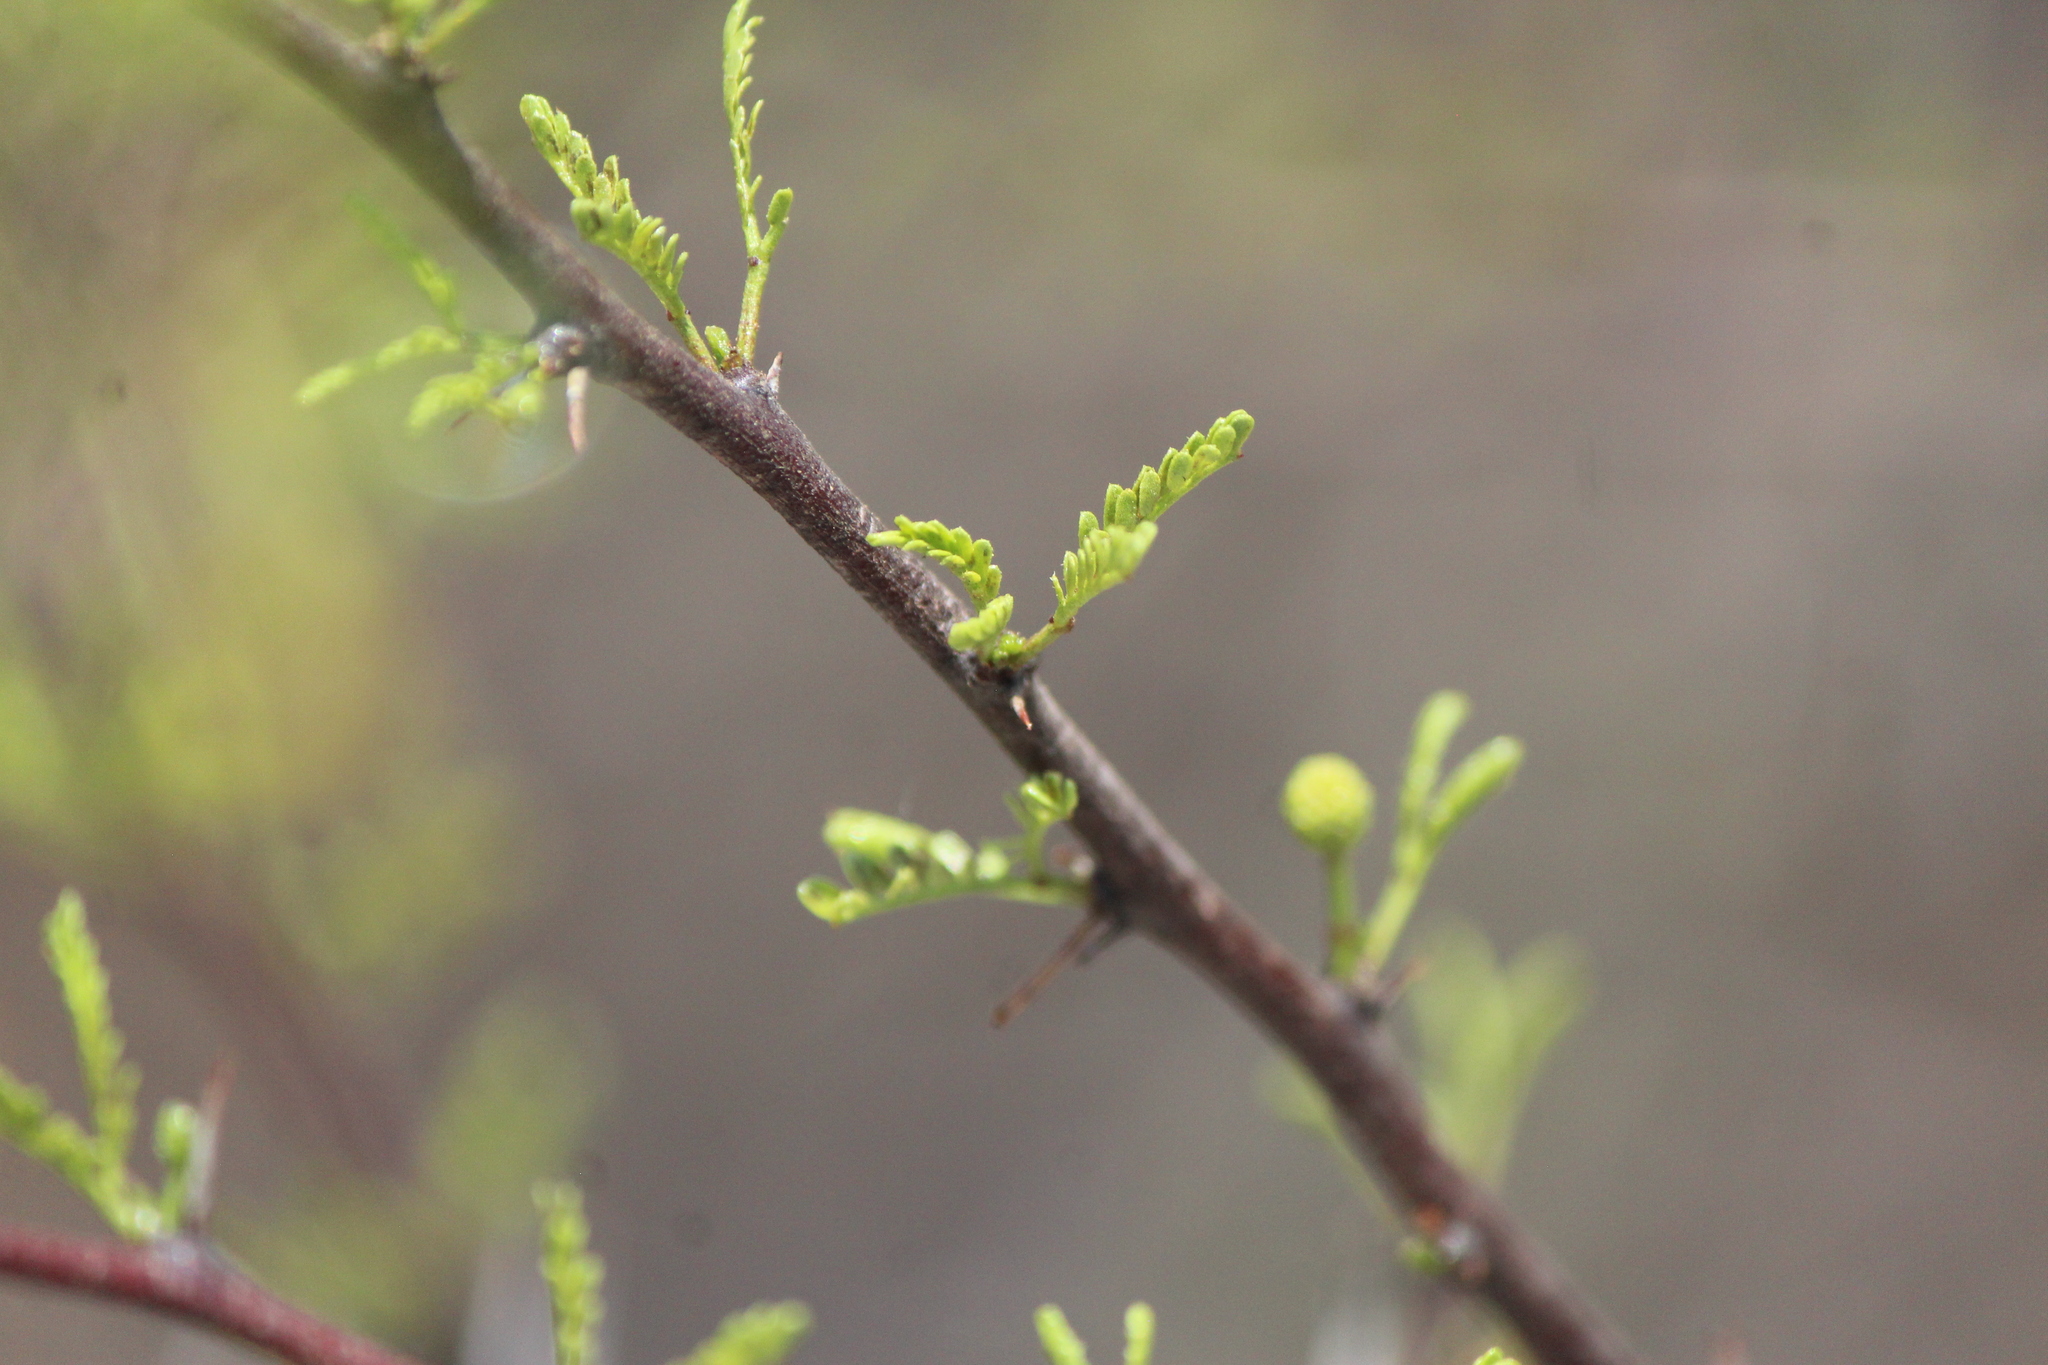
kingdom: Plantae
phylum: Tracheophyta
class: Magnoliopsida
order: Fabales
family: Fabaceae
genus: Vachellia
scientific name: Vachellia constricta
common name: Mescat acacia
